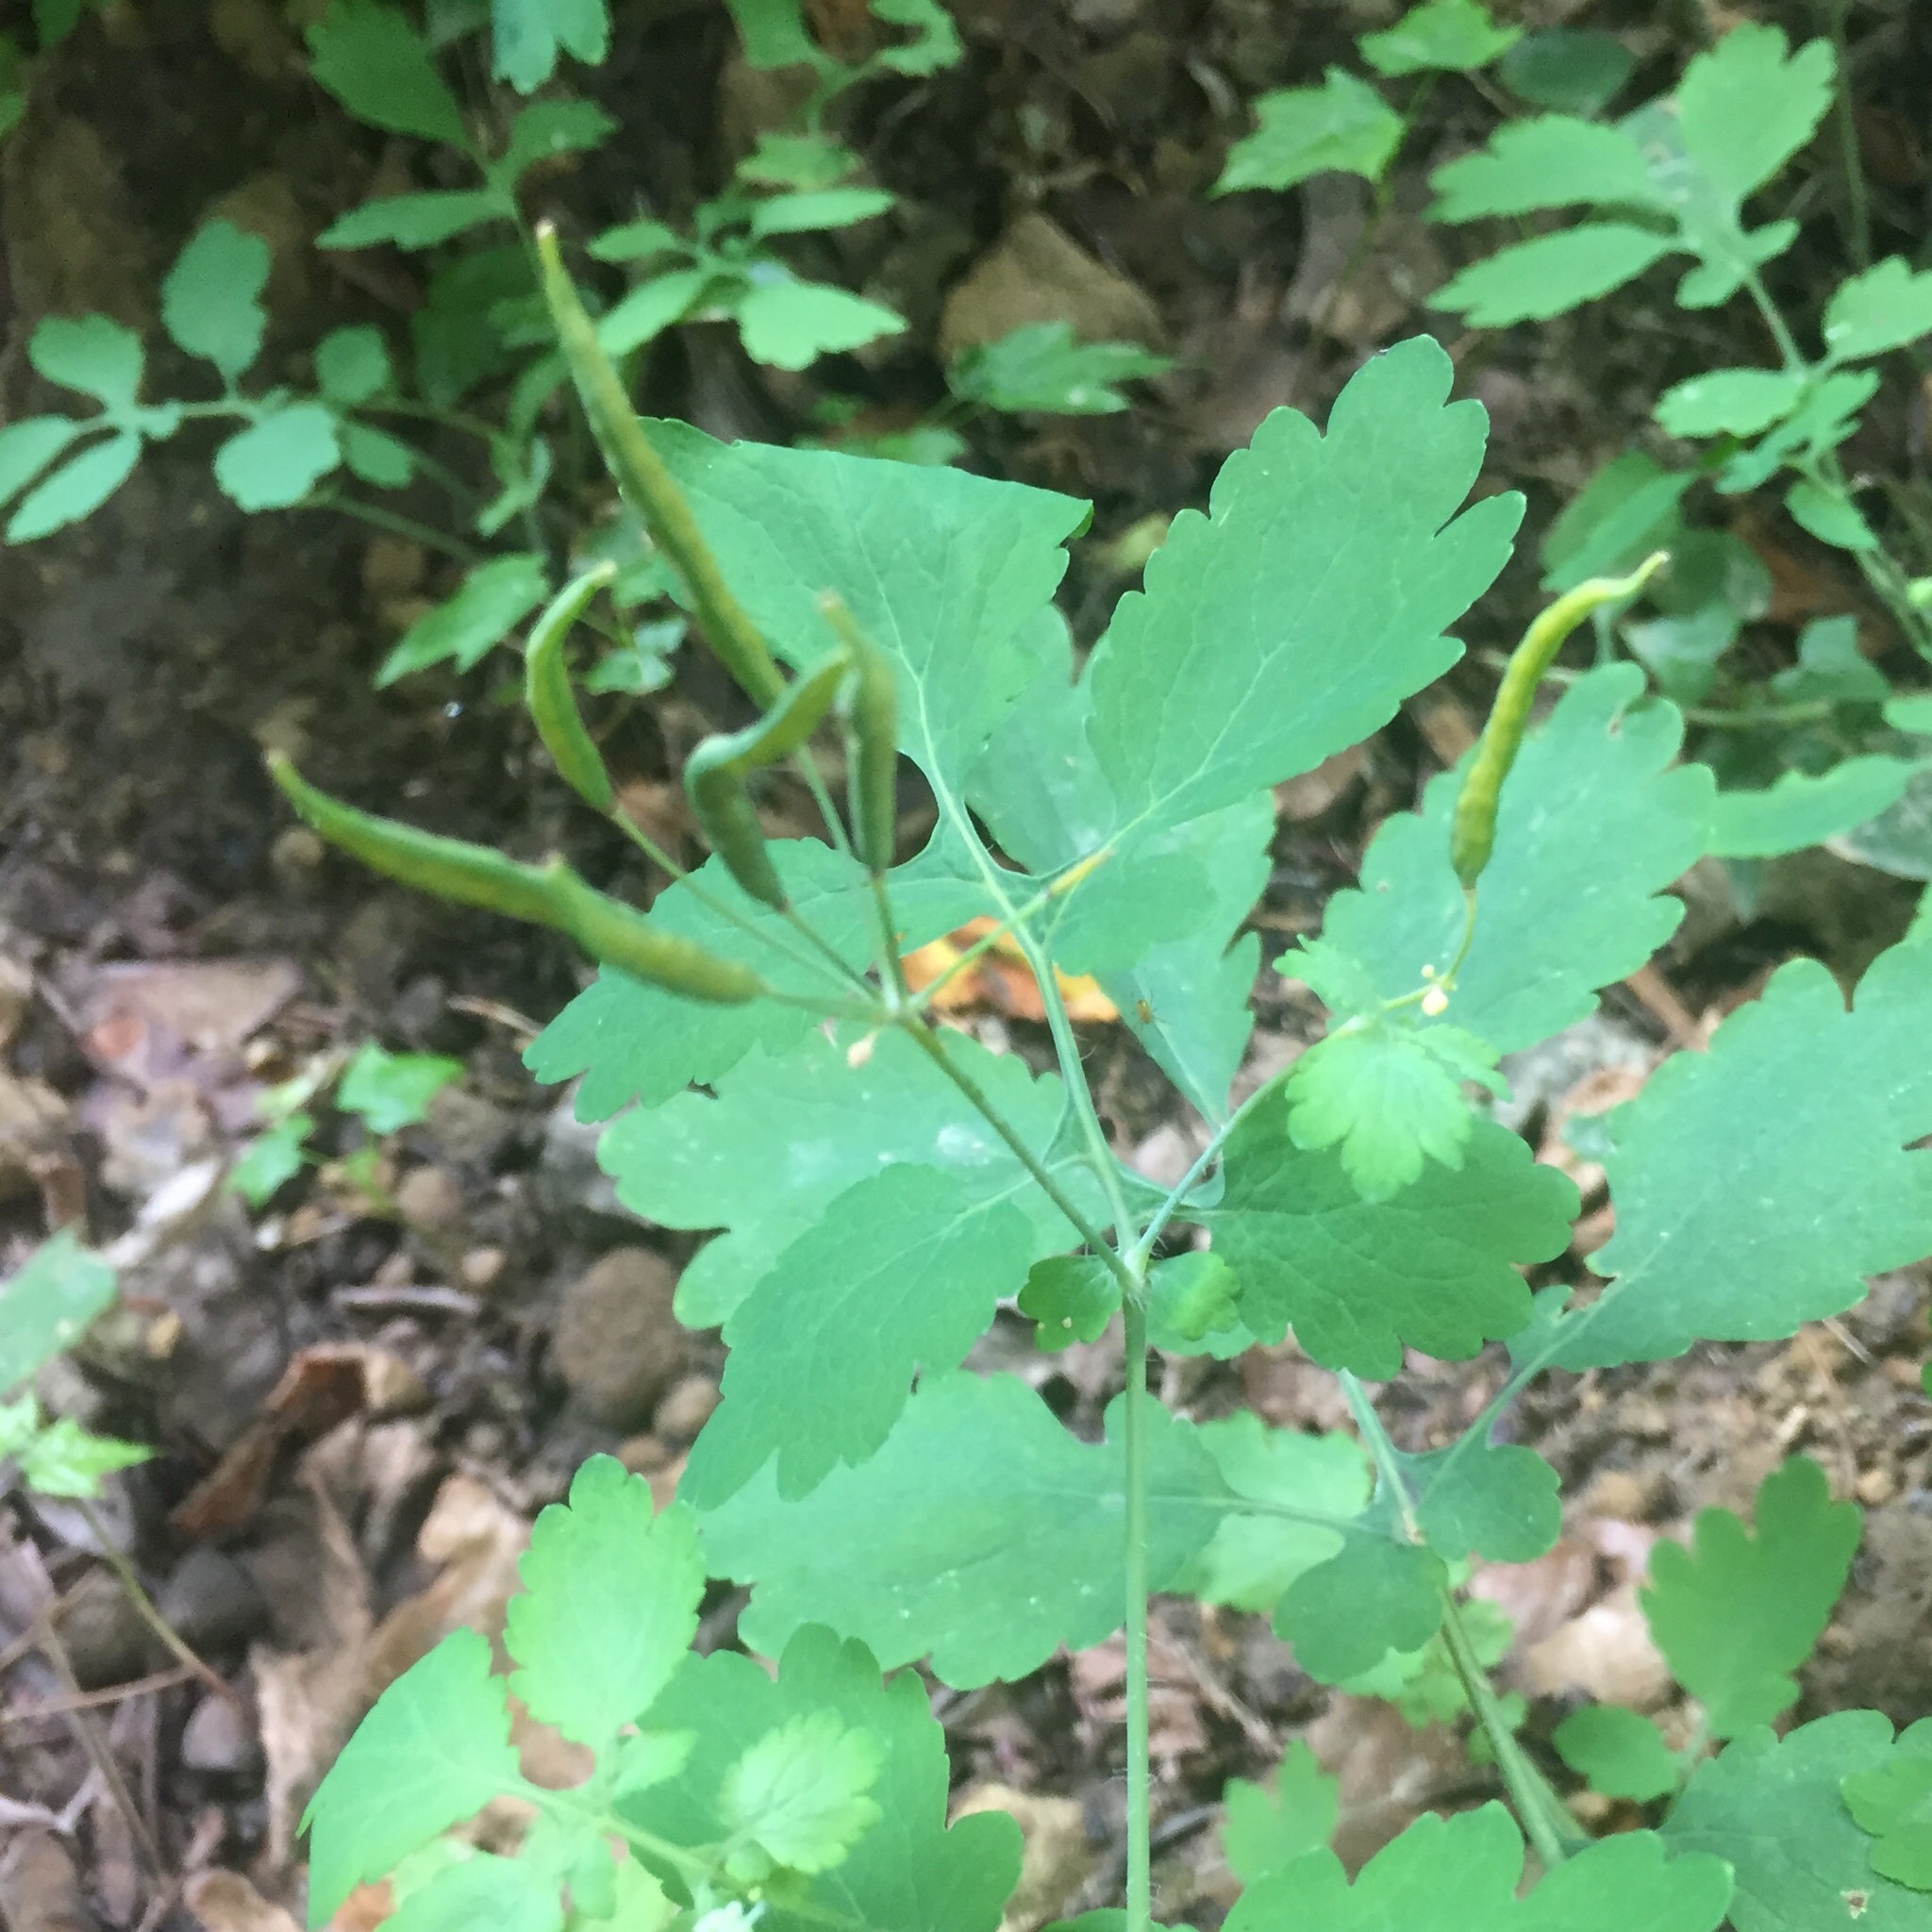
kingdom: Plantae
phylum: Tracheophyta
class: Magnoliopsida
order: Ranunculales
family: Papaveraceae
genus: Chelidonium
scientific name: Chelidonium majus
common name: Greater celandine
